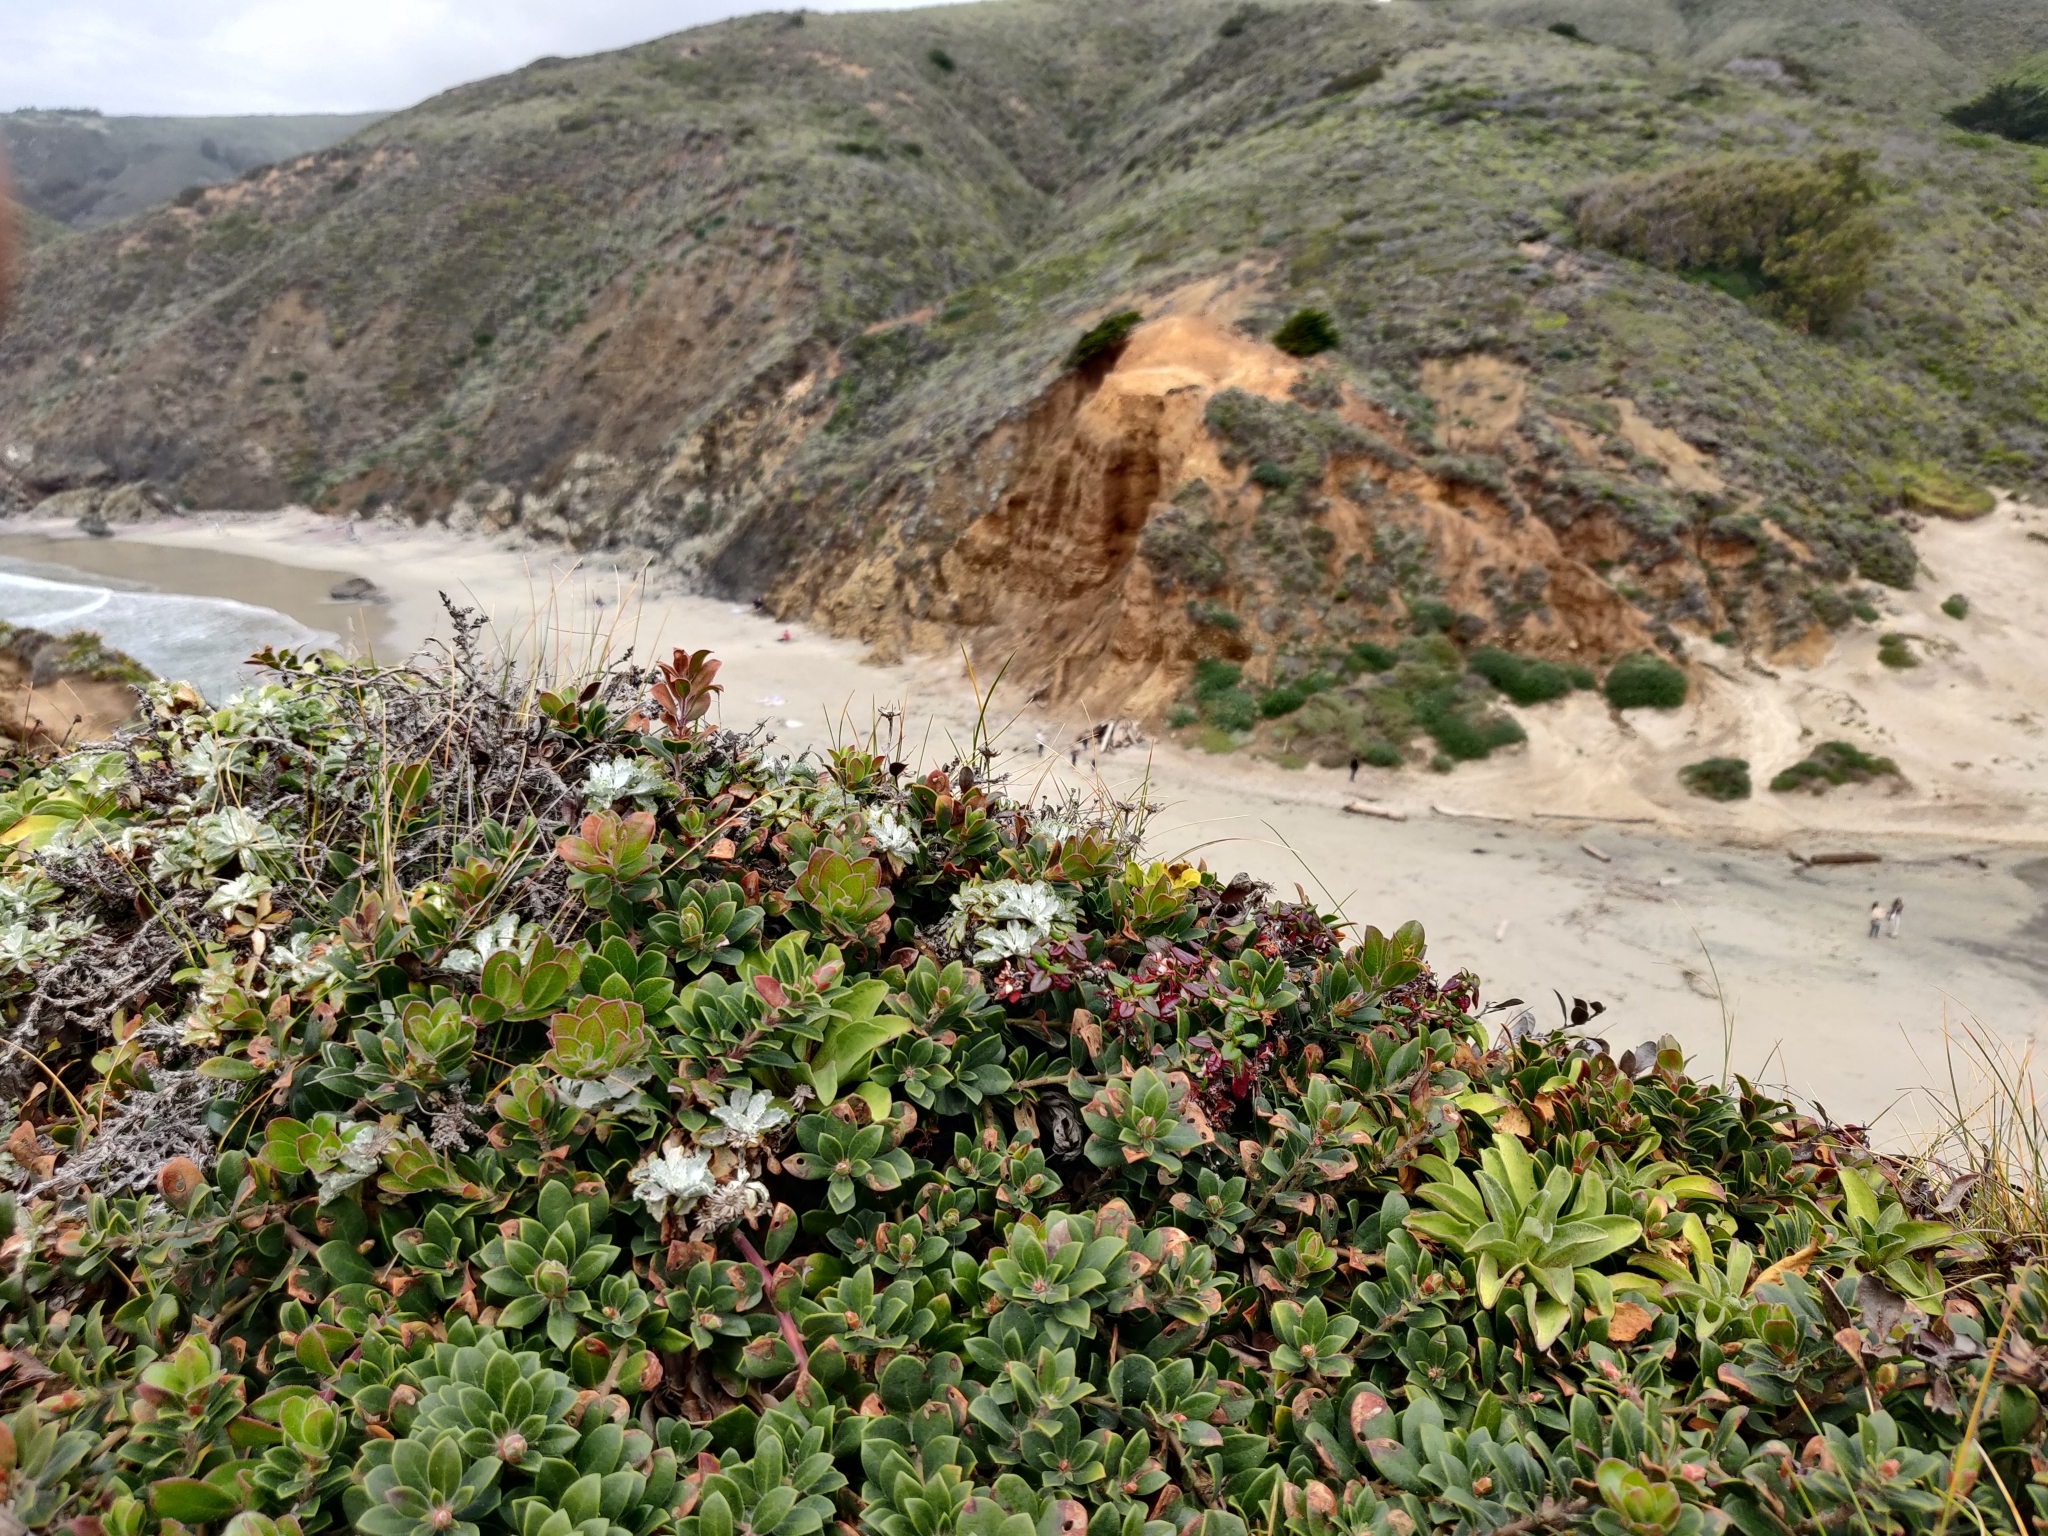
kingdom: Plantae
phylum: Tracheophyta
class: Magnoliopsida
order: Ericales
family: Ericaceae
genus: Arctostaphylos
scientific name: Arctostaphylos uva-ursi
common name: Bearberry
